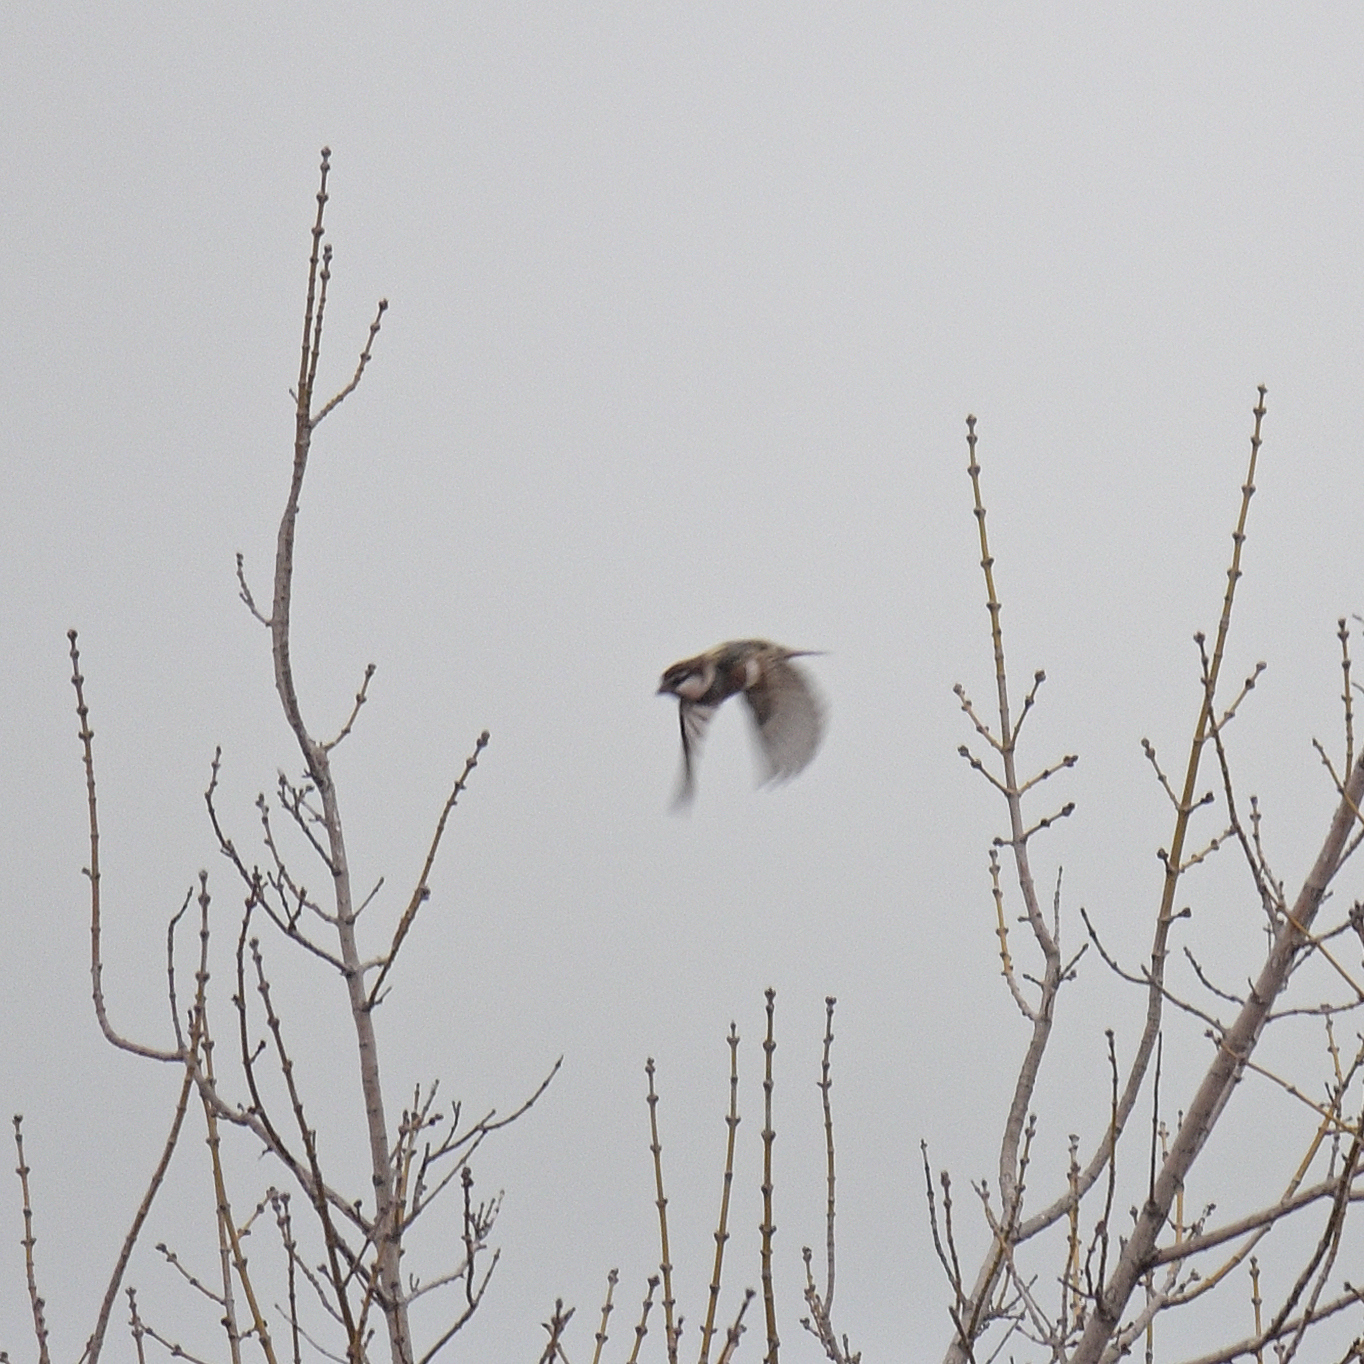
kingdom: Animalia
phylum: Chordata
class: Aves
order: Passeriformes
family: Passeridae
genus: Passer
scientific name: Passer hispaniolensis
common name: Spanish sparrow
